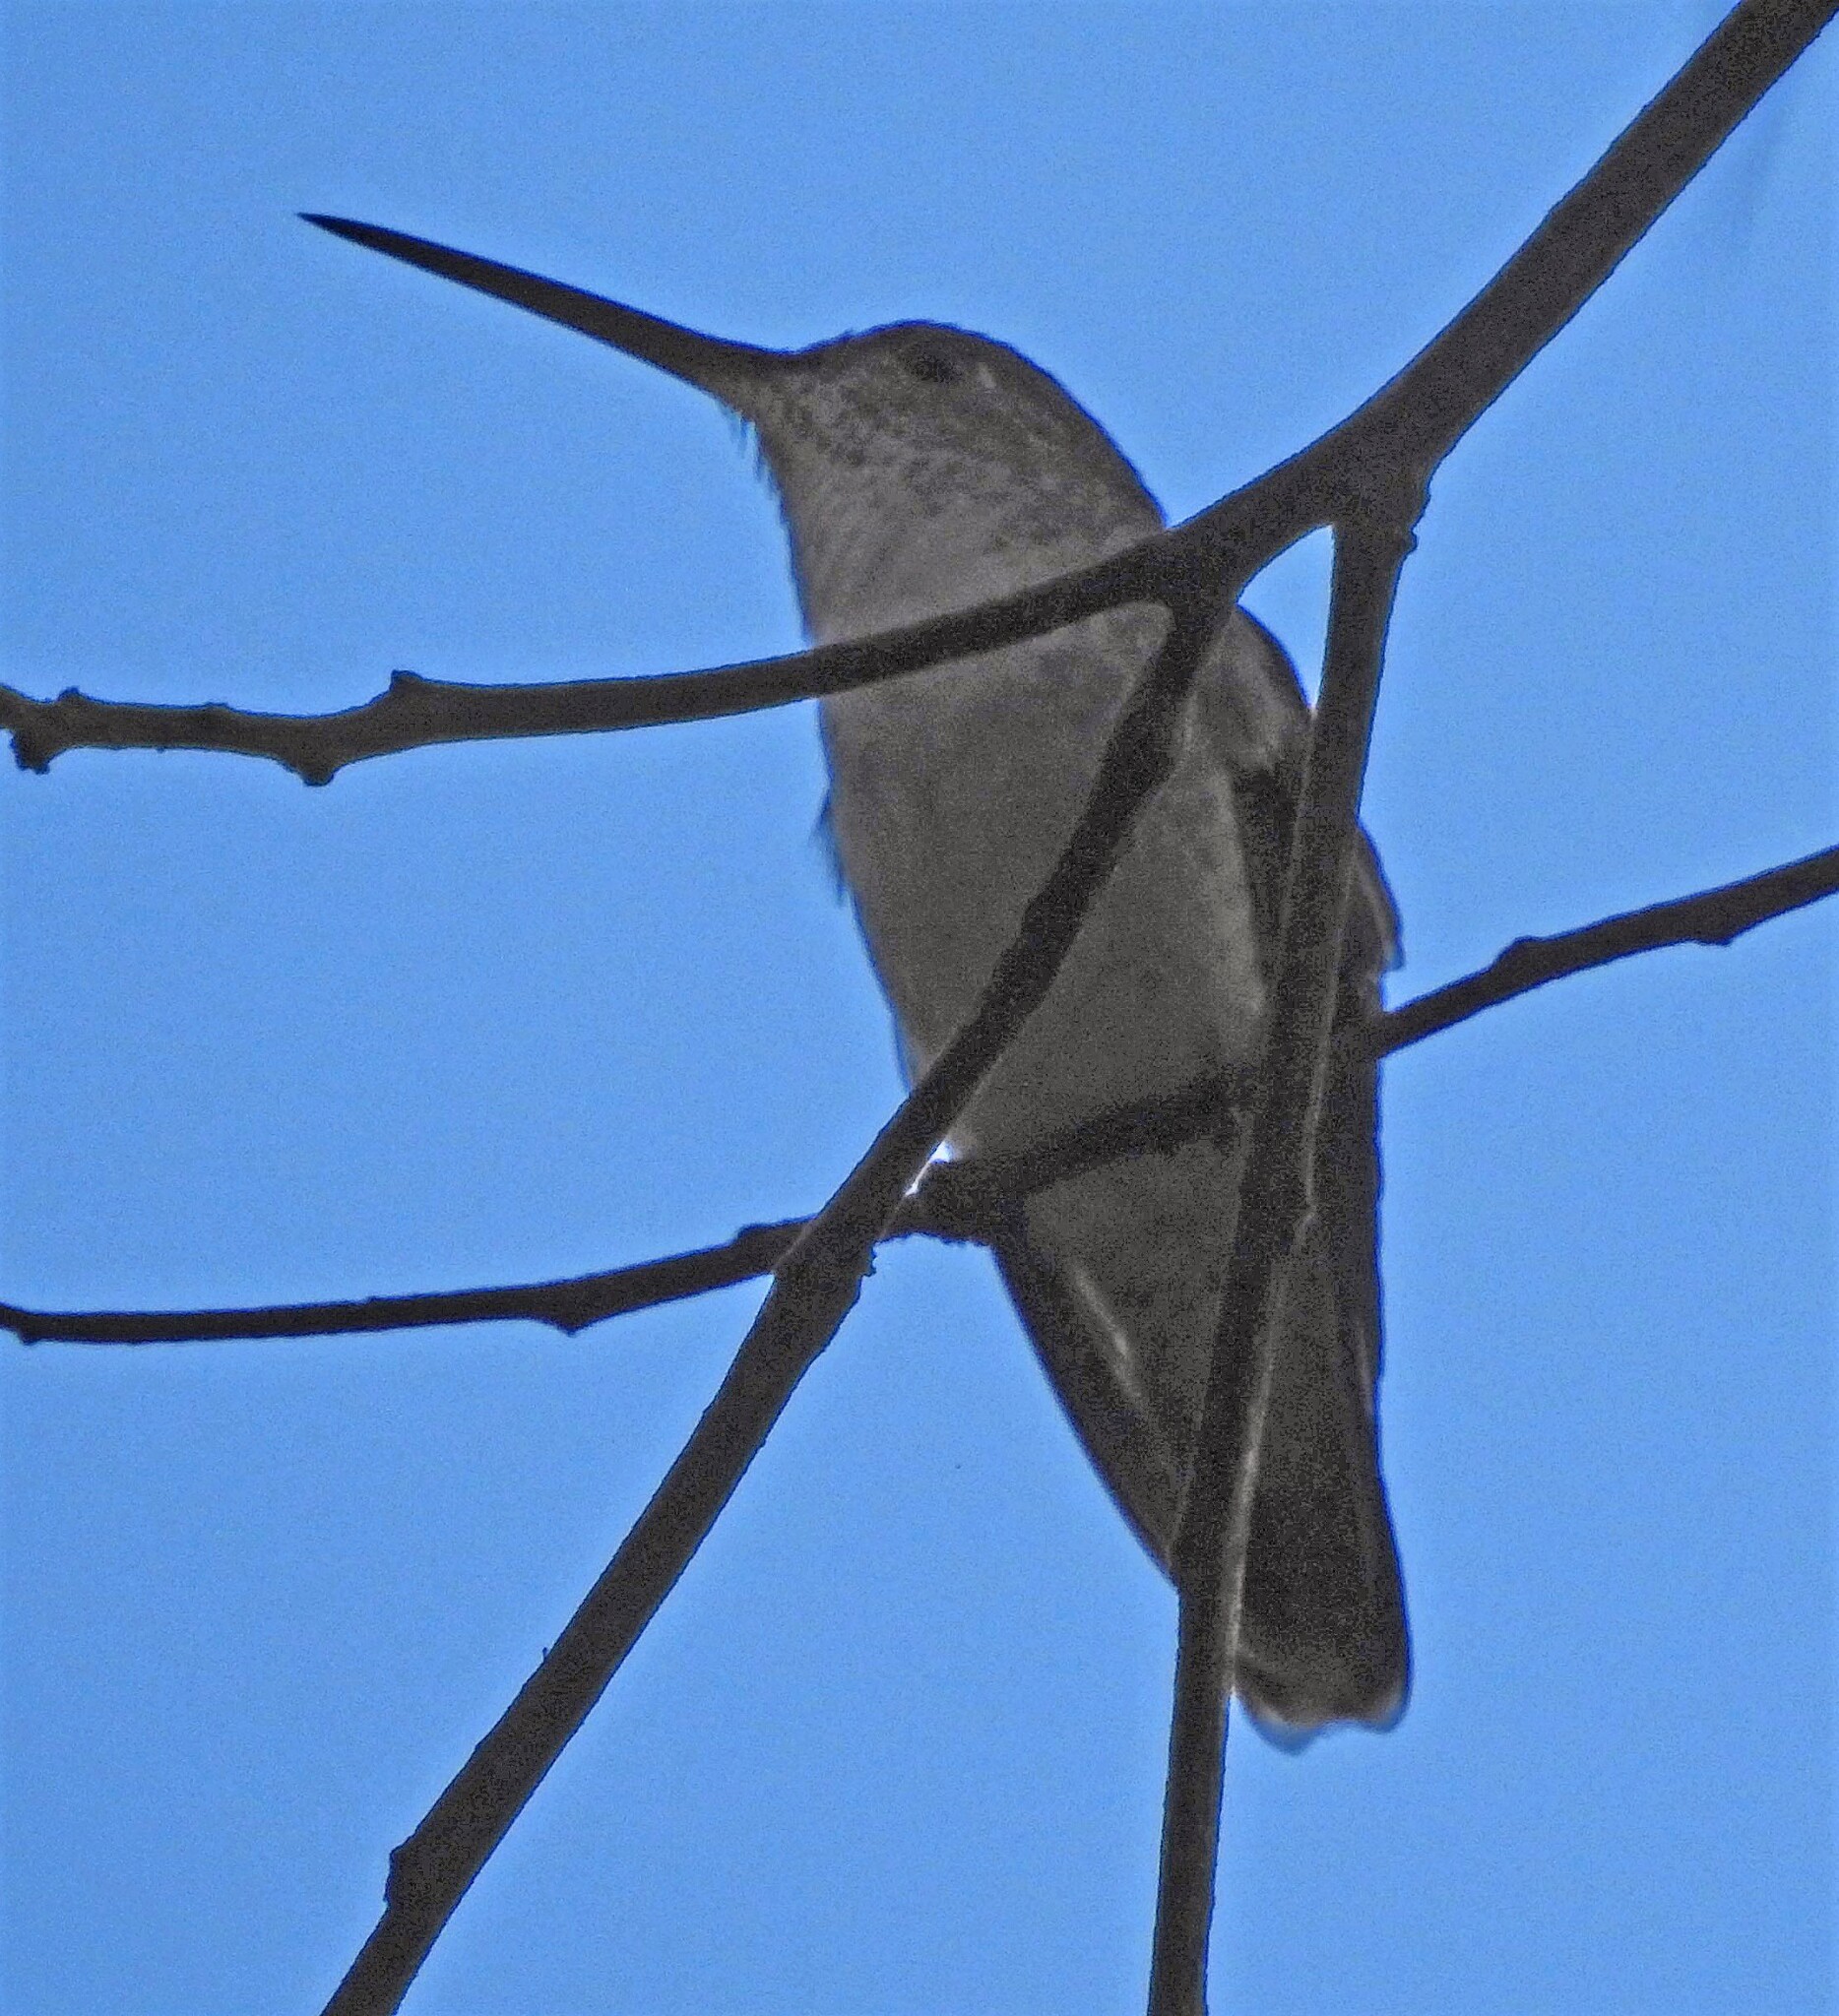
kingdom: Animalia
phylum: Chordata
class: Aves
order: Apodiformes
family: Trochilidae
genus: Elliotomyia
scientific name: Elliotomyia chionogaster
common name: White-bellied hummingbird
